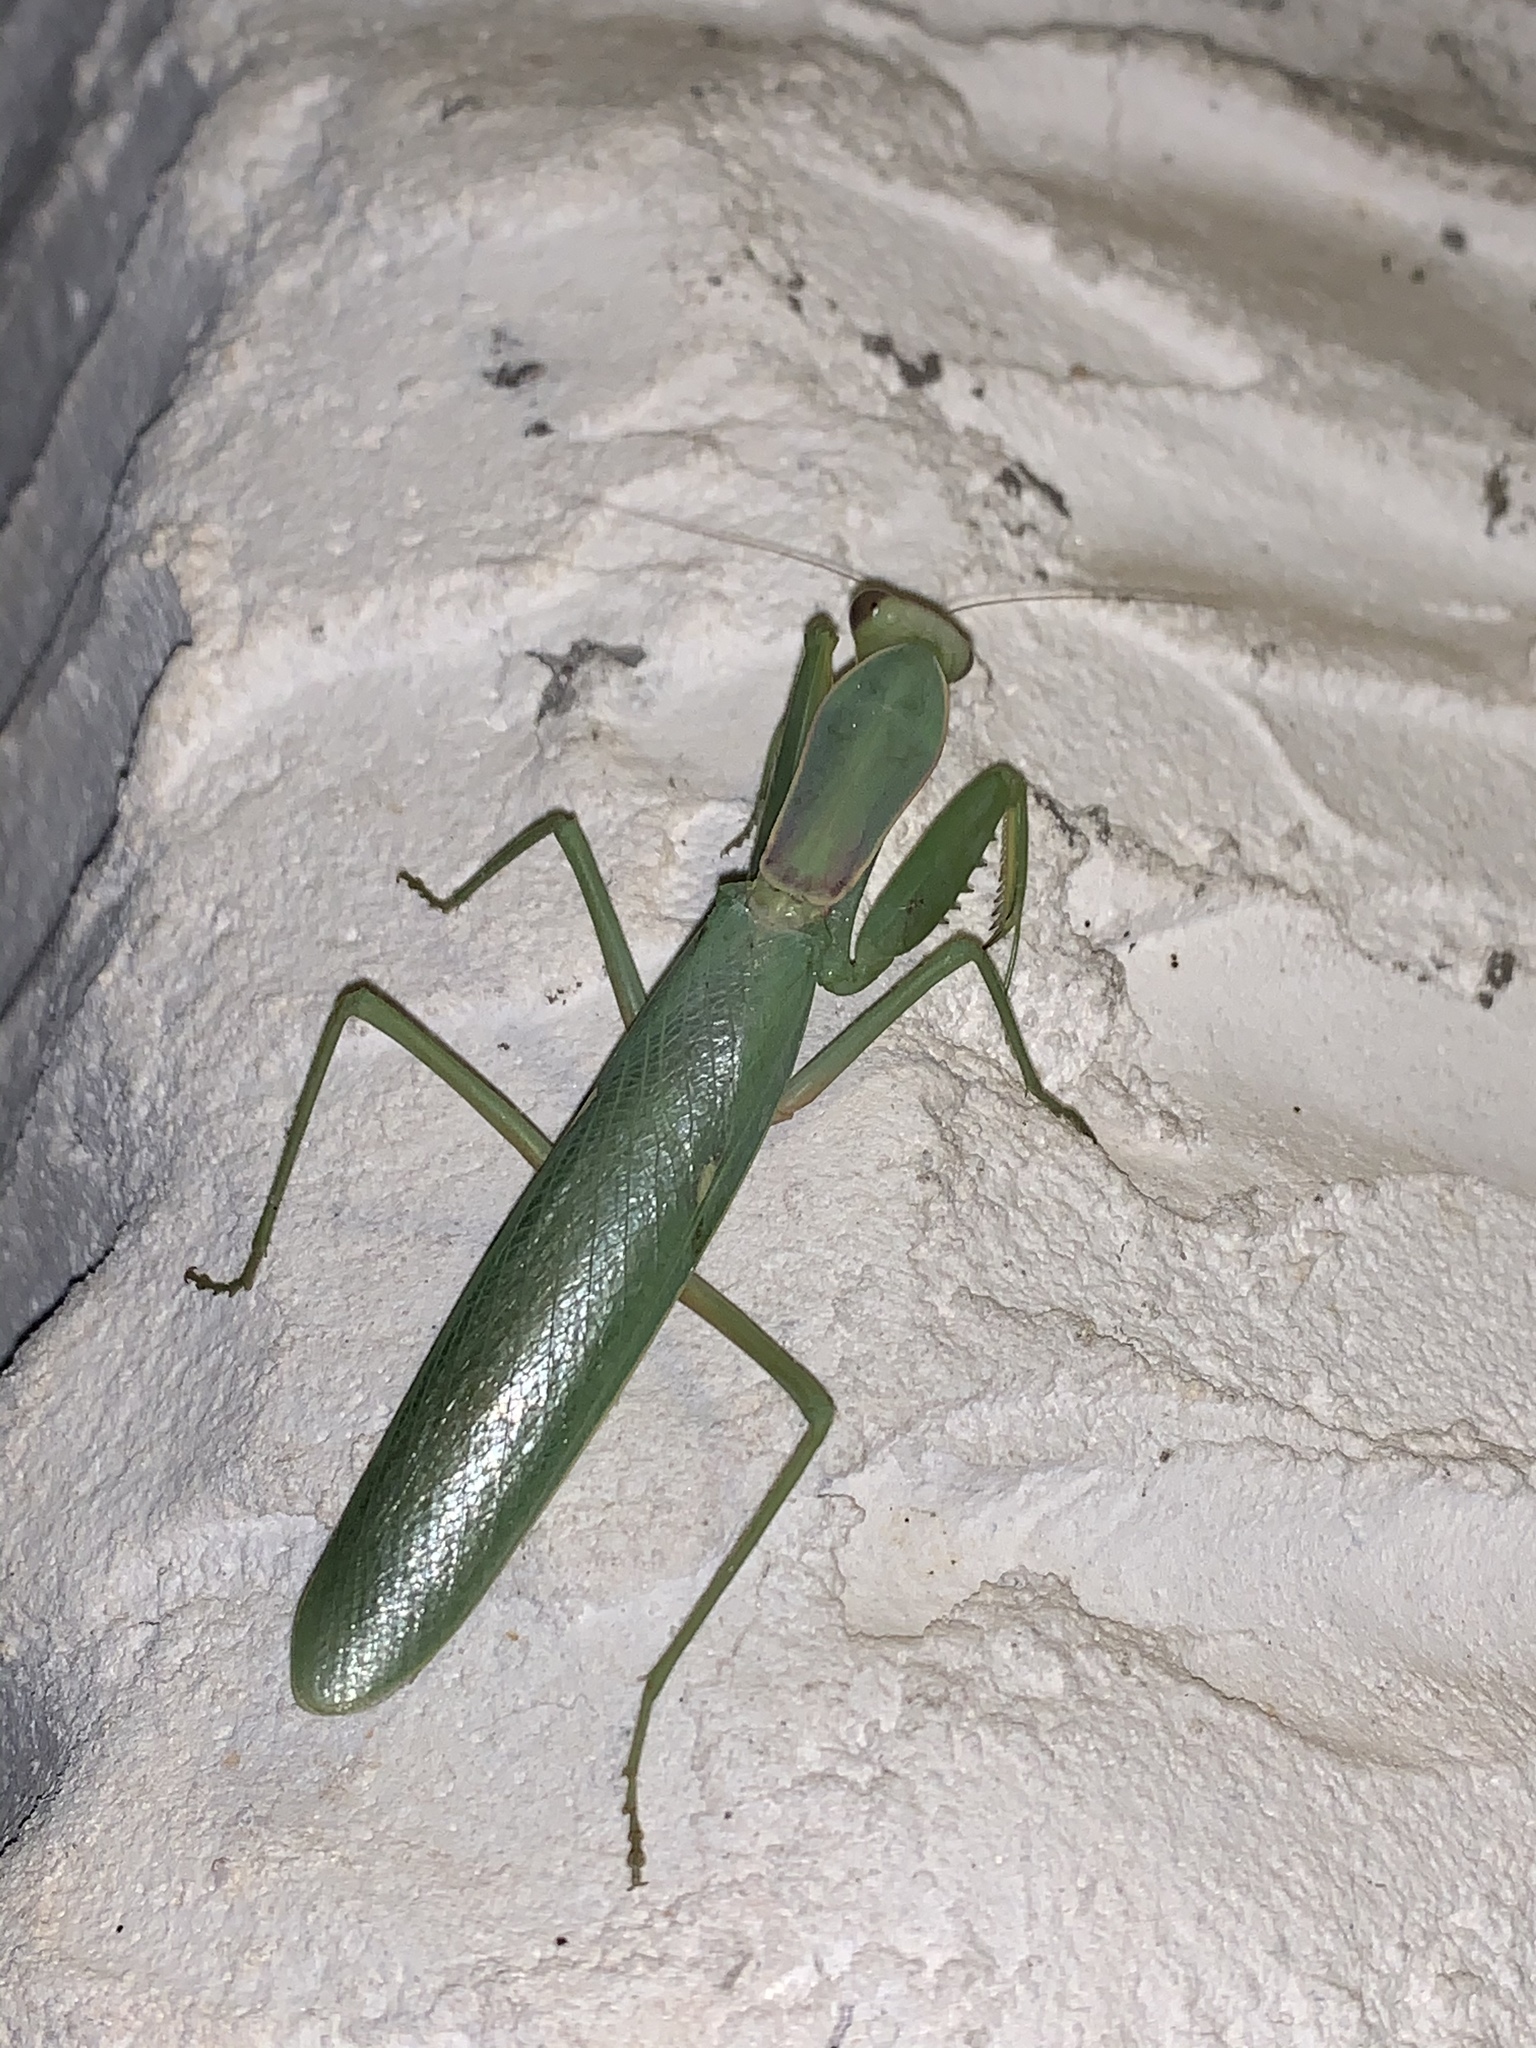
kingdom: Animalia
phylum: Arthropoda
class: Insecta
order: Mantodea
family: Mantidae
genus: Hierodula
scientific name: Hierodula transcaucasica
